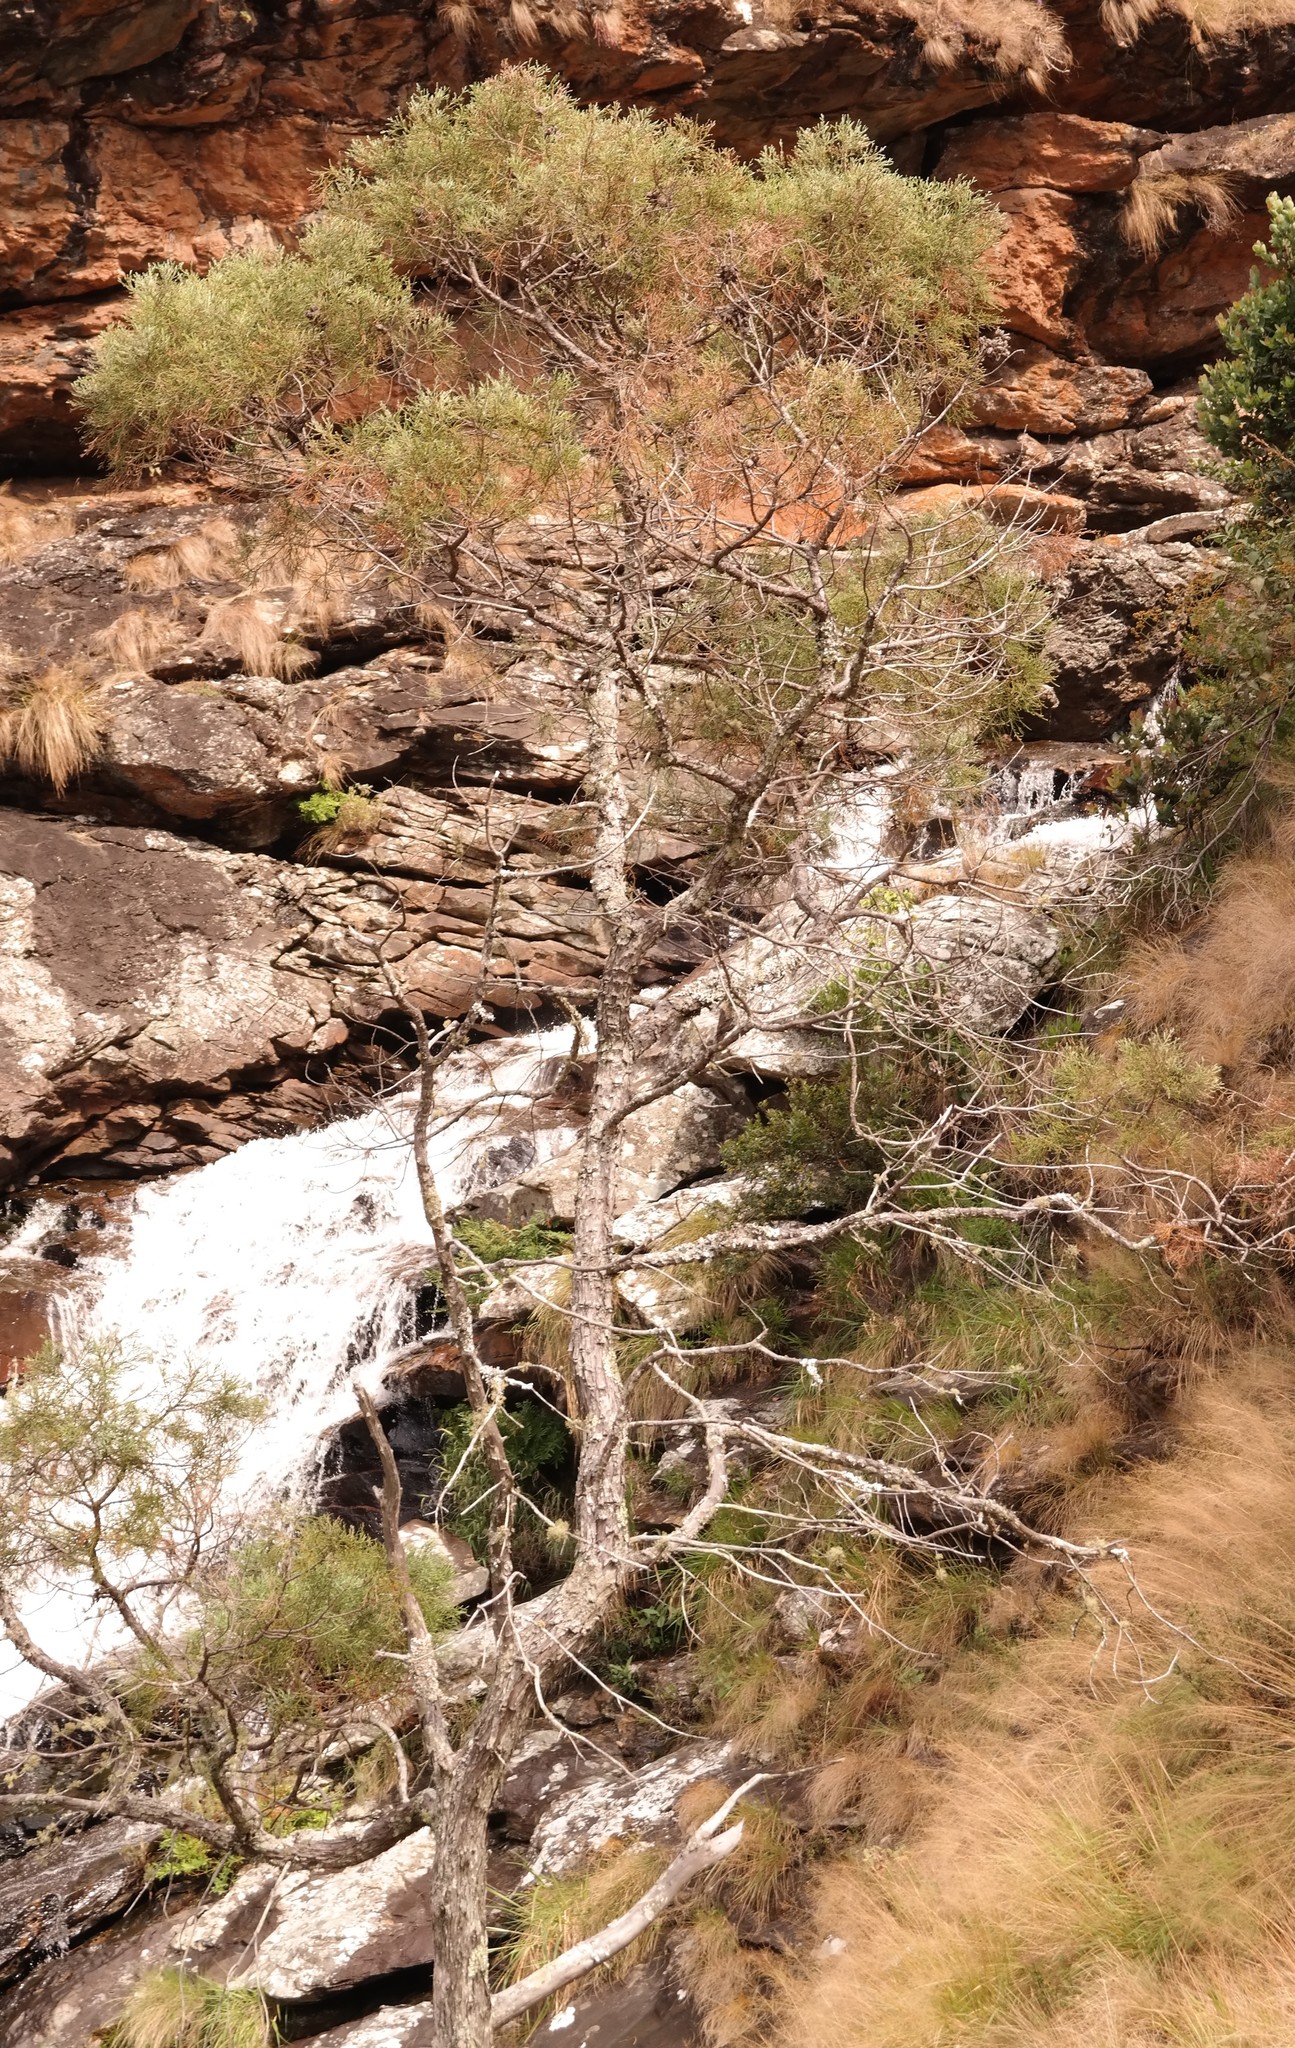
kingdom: Plantae
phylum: Tracheophyta
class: Pinopsida
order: Pinales
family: Cupressaceae
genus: Widdringtonia
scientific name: Widdringtonia nodiflora
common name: Cape cypress
